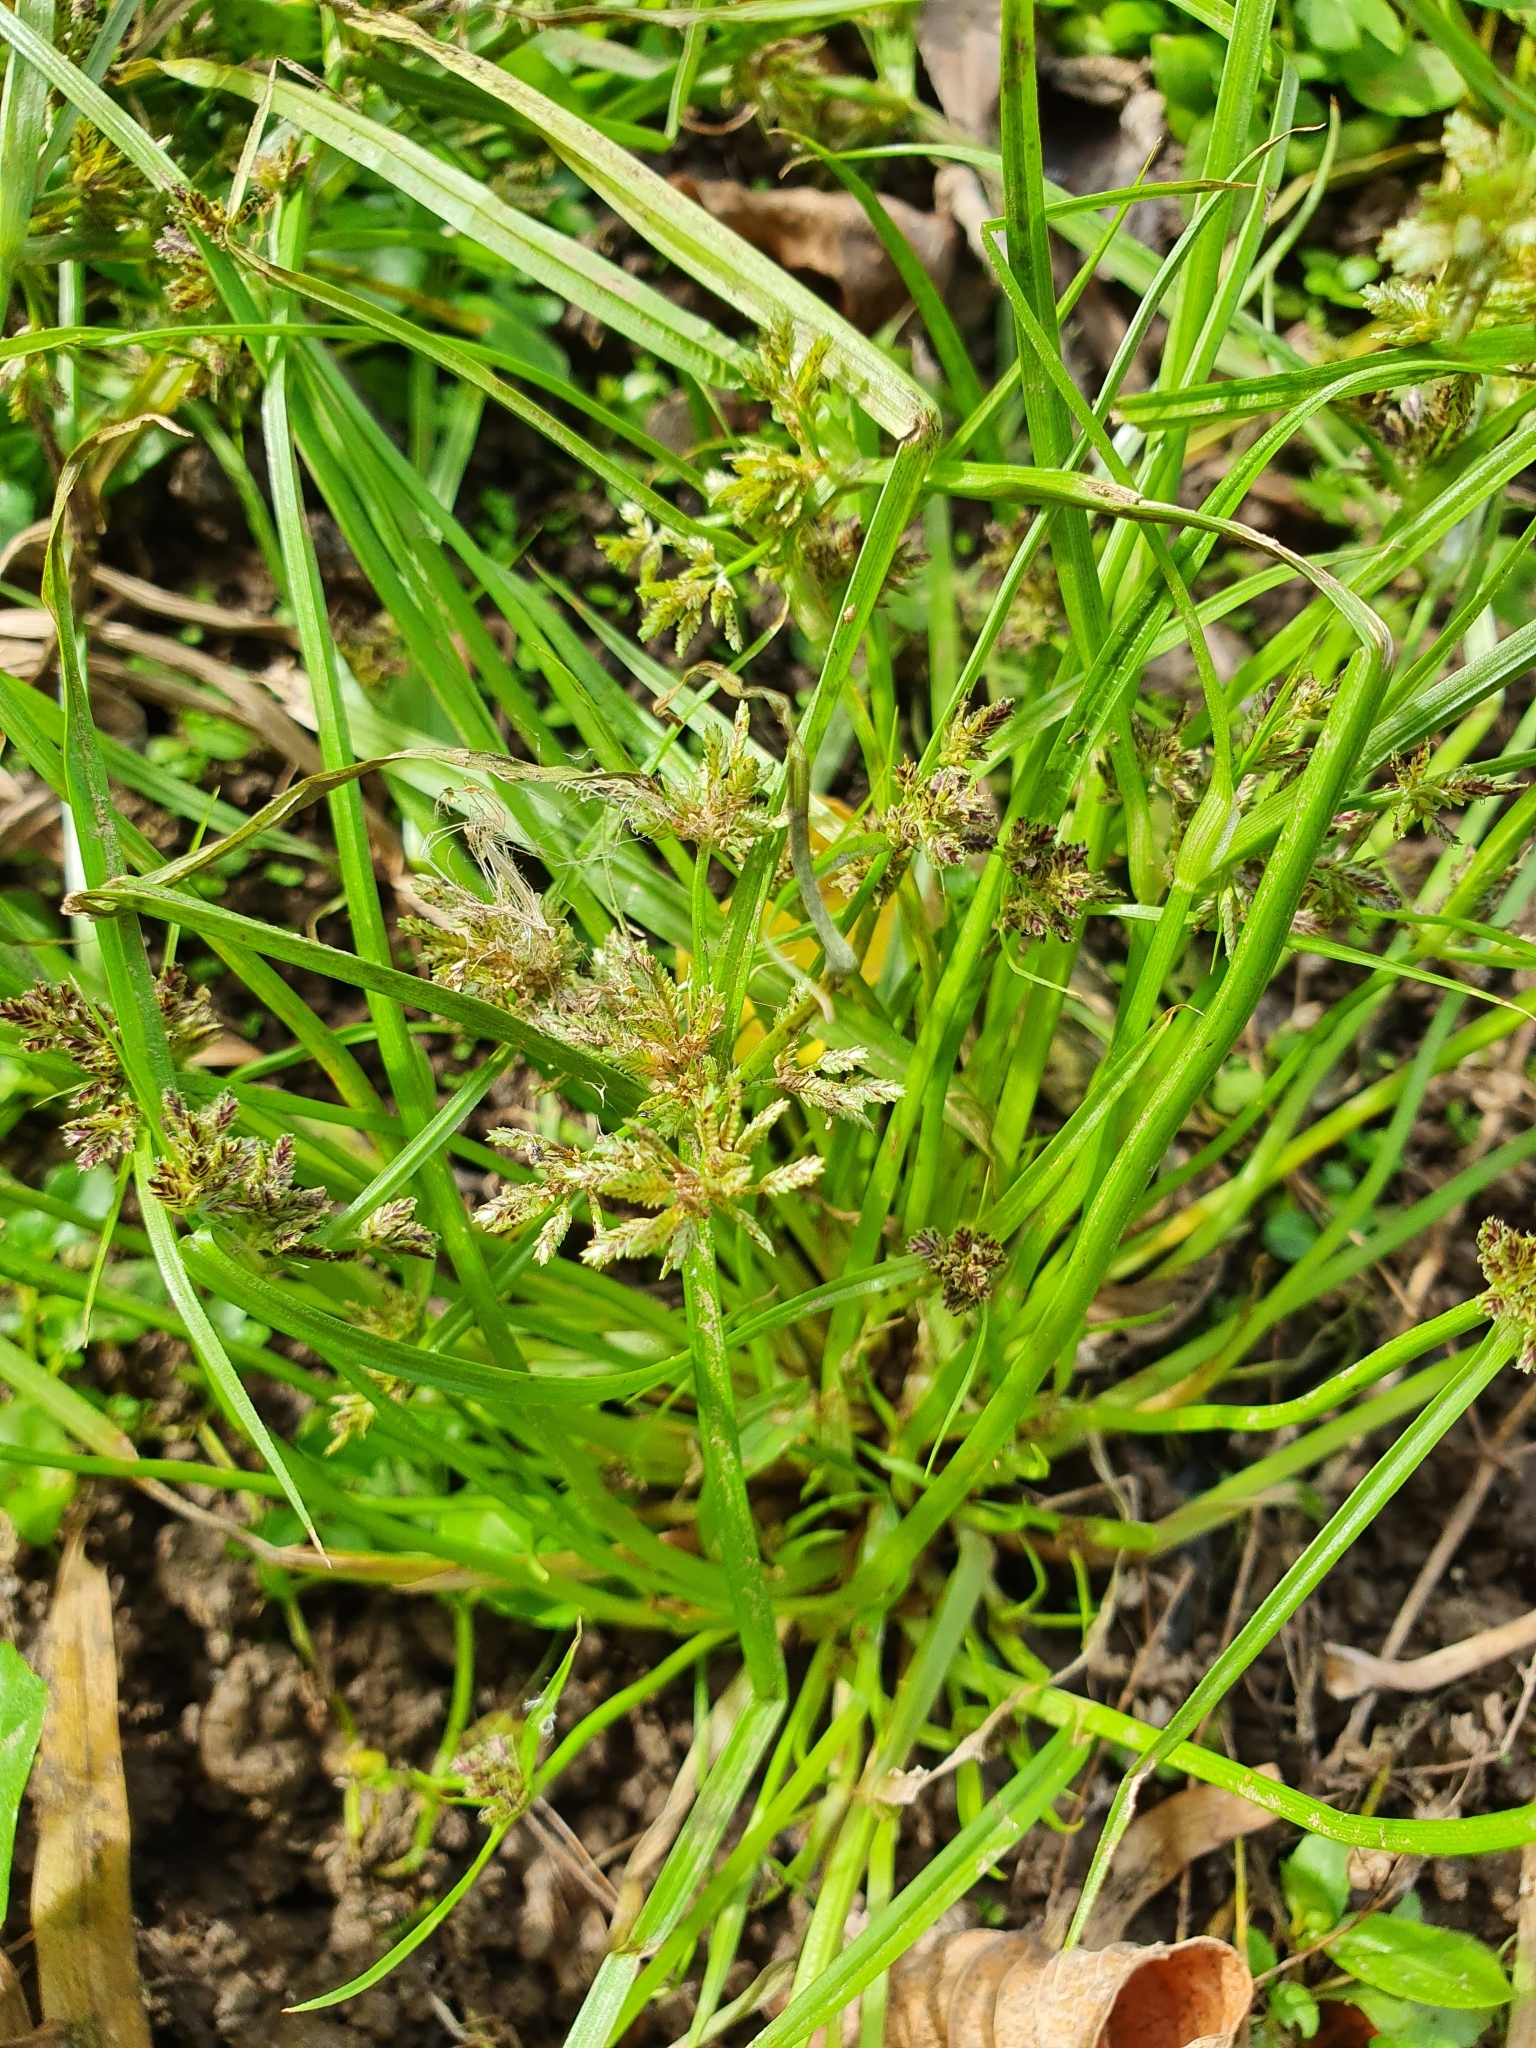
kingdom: Plantae
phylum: Tracheophyta
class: Liliopsida
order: Poales
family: Cyperaceae
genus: Cyperus
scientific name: Cyperus fuscus
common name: Brown galingale
